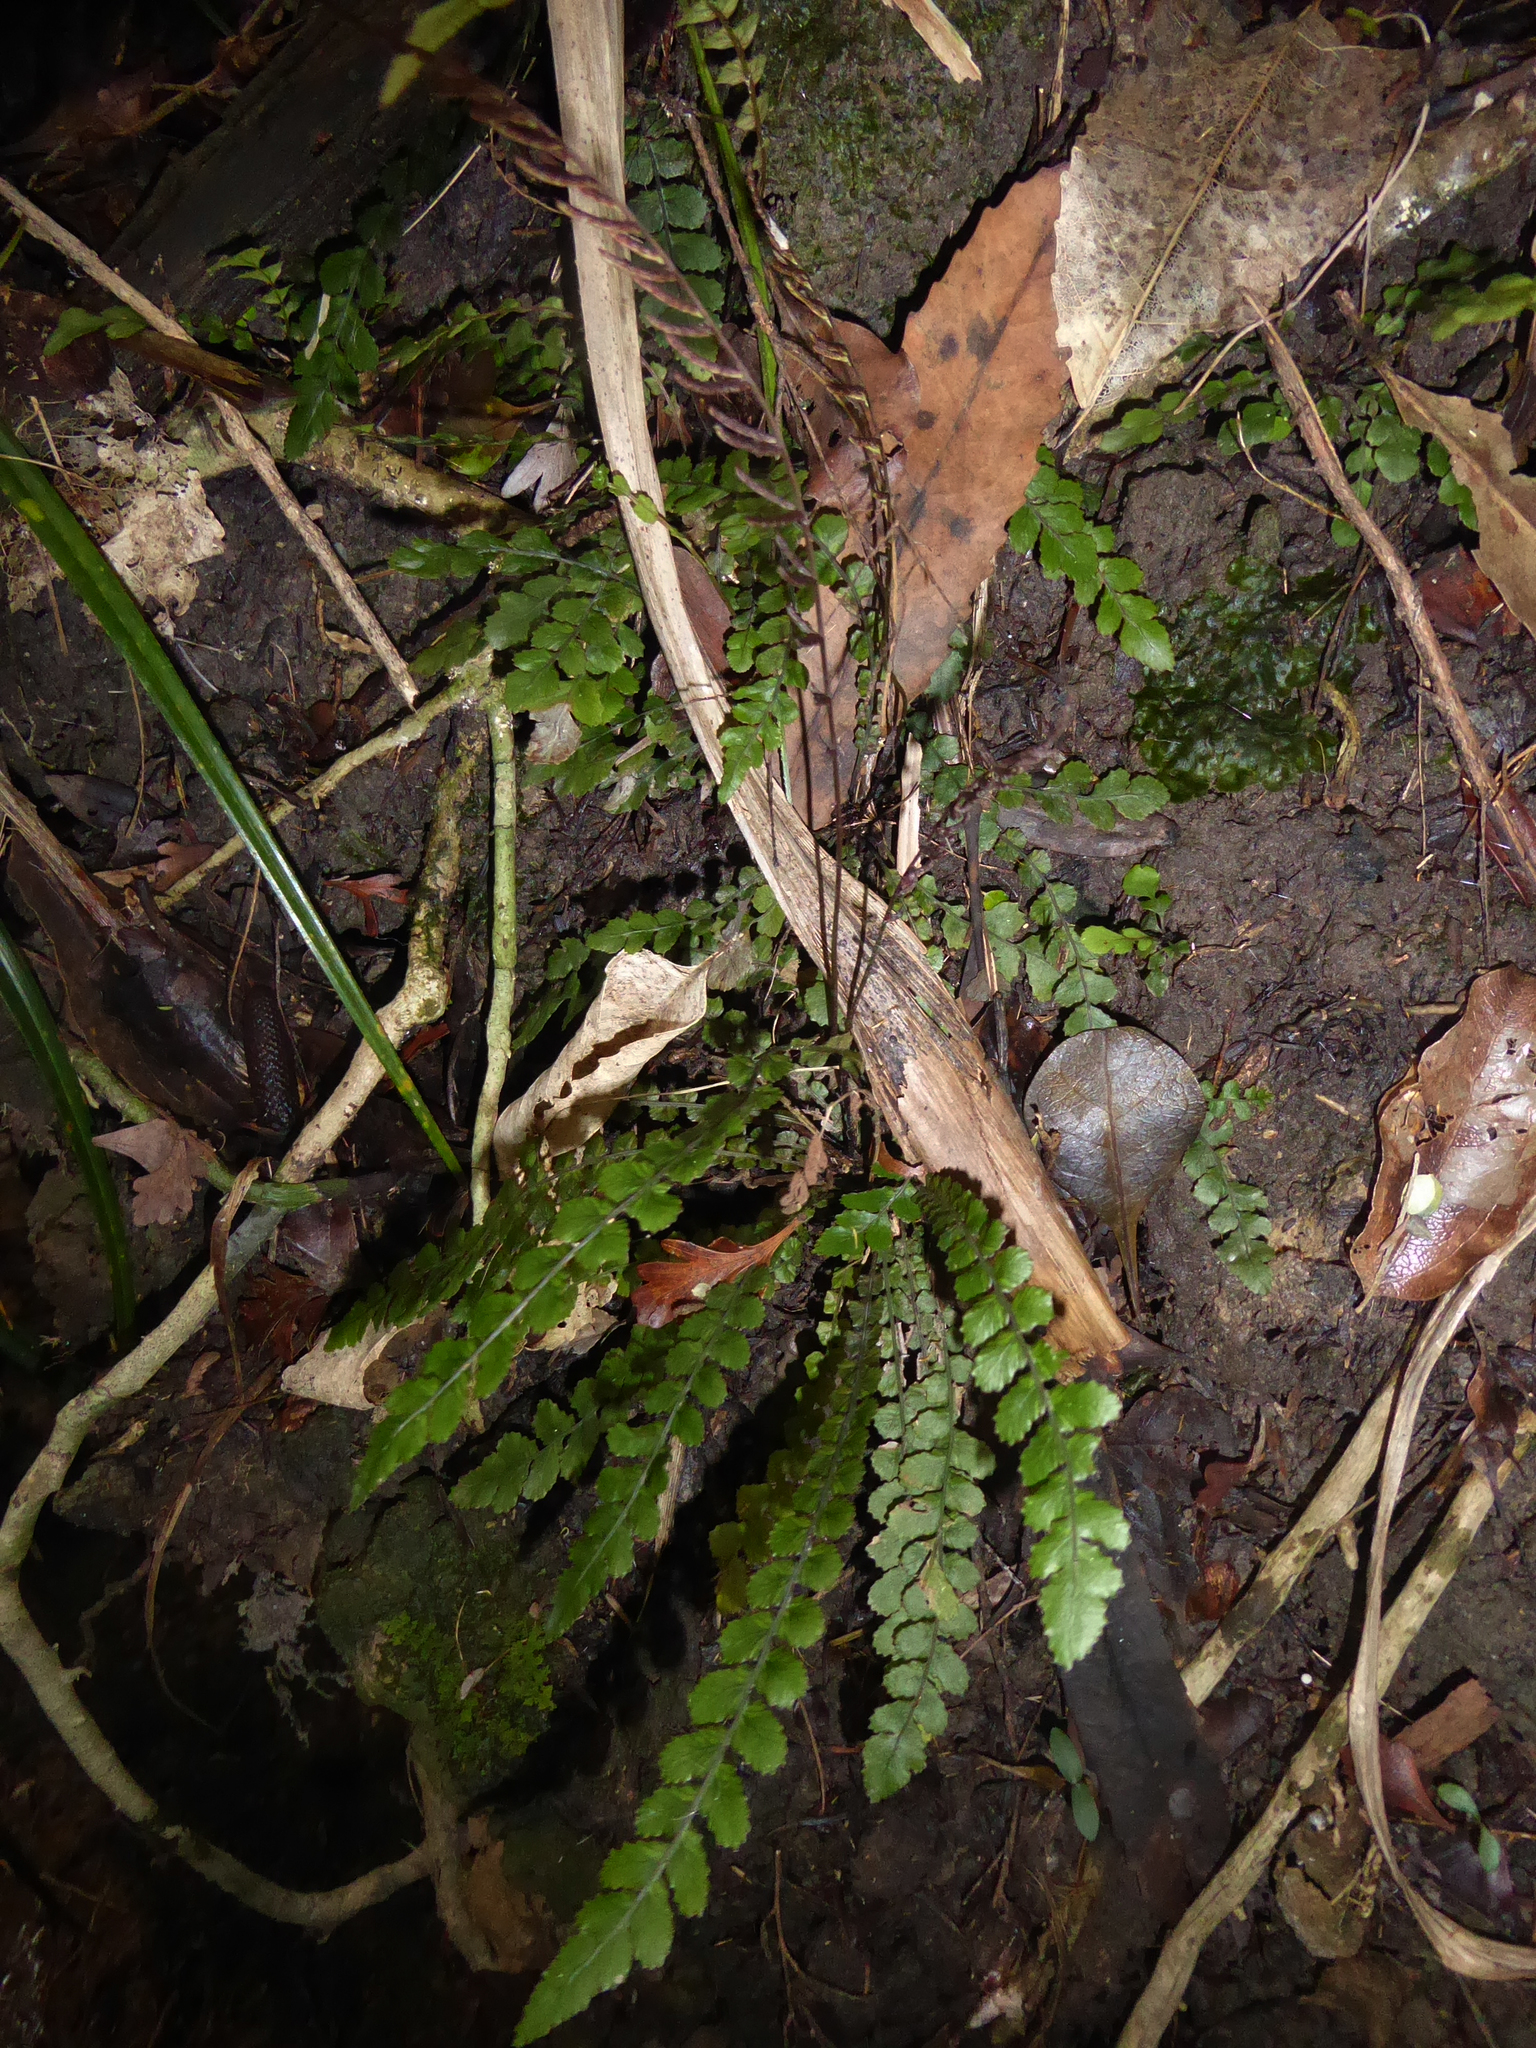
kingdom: Plantae
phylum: Tracheophyta
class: Polypodiopsida
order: Polypodiales
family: Blechnaceae
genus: Austroblechnum
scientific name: Austroblechnum membranaceum
